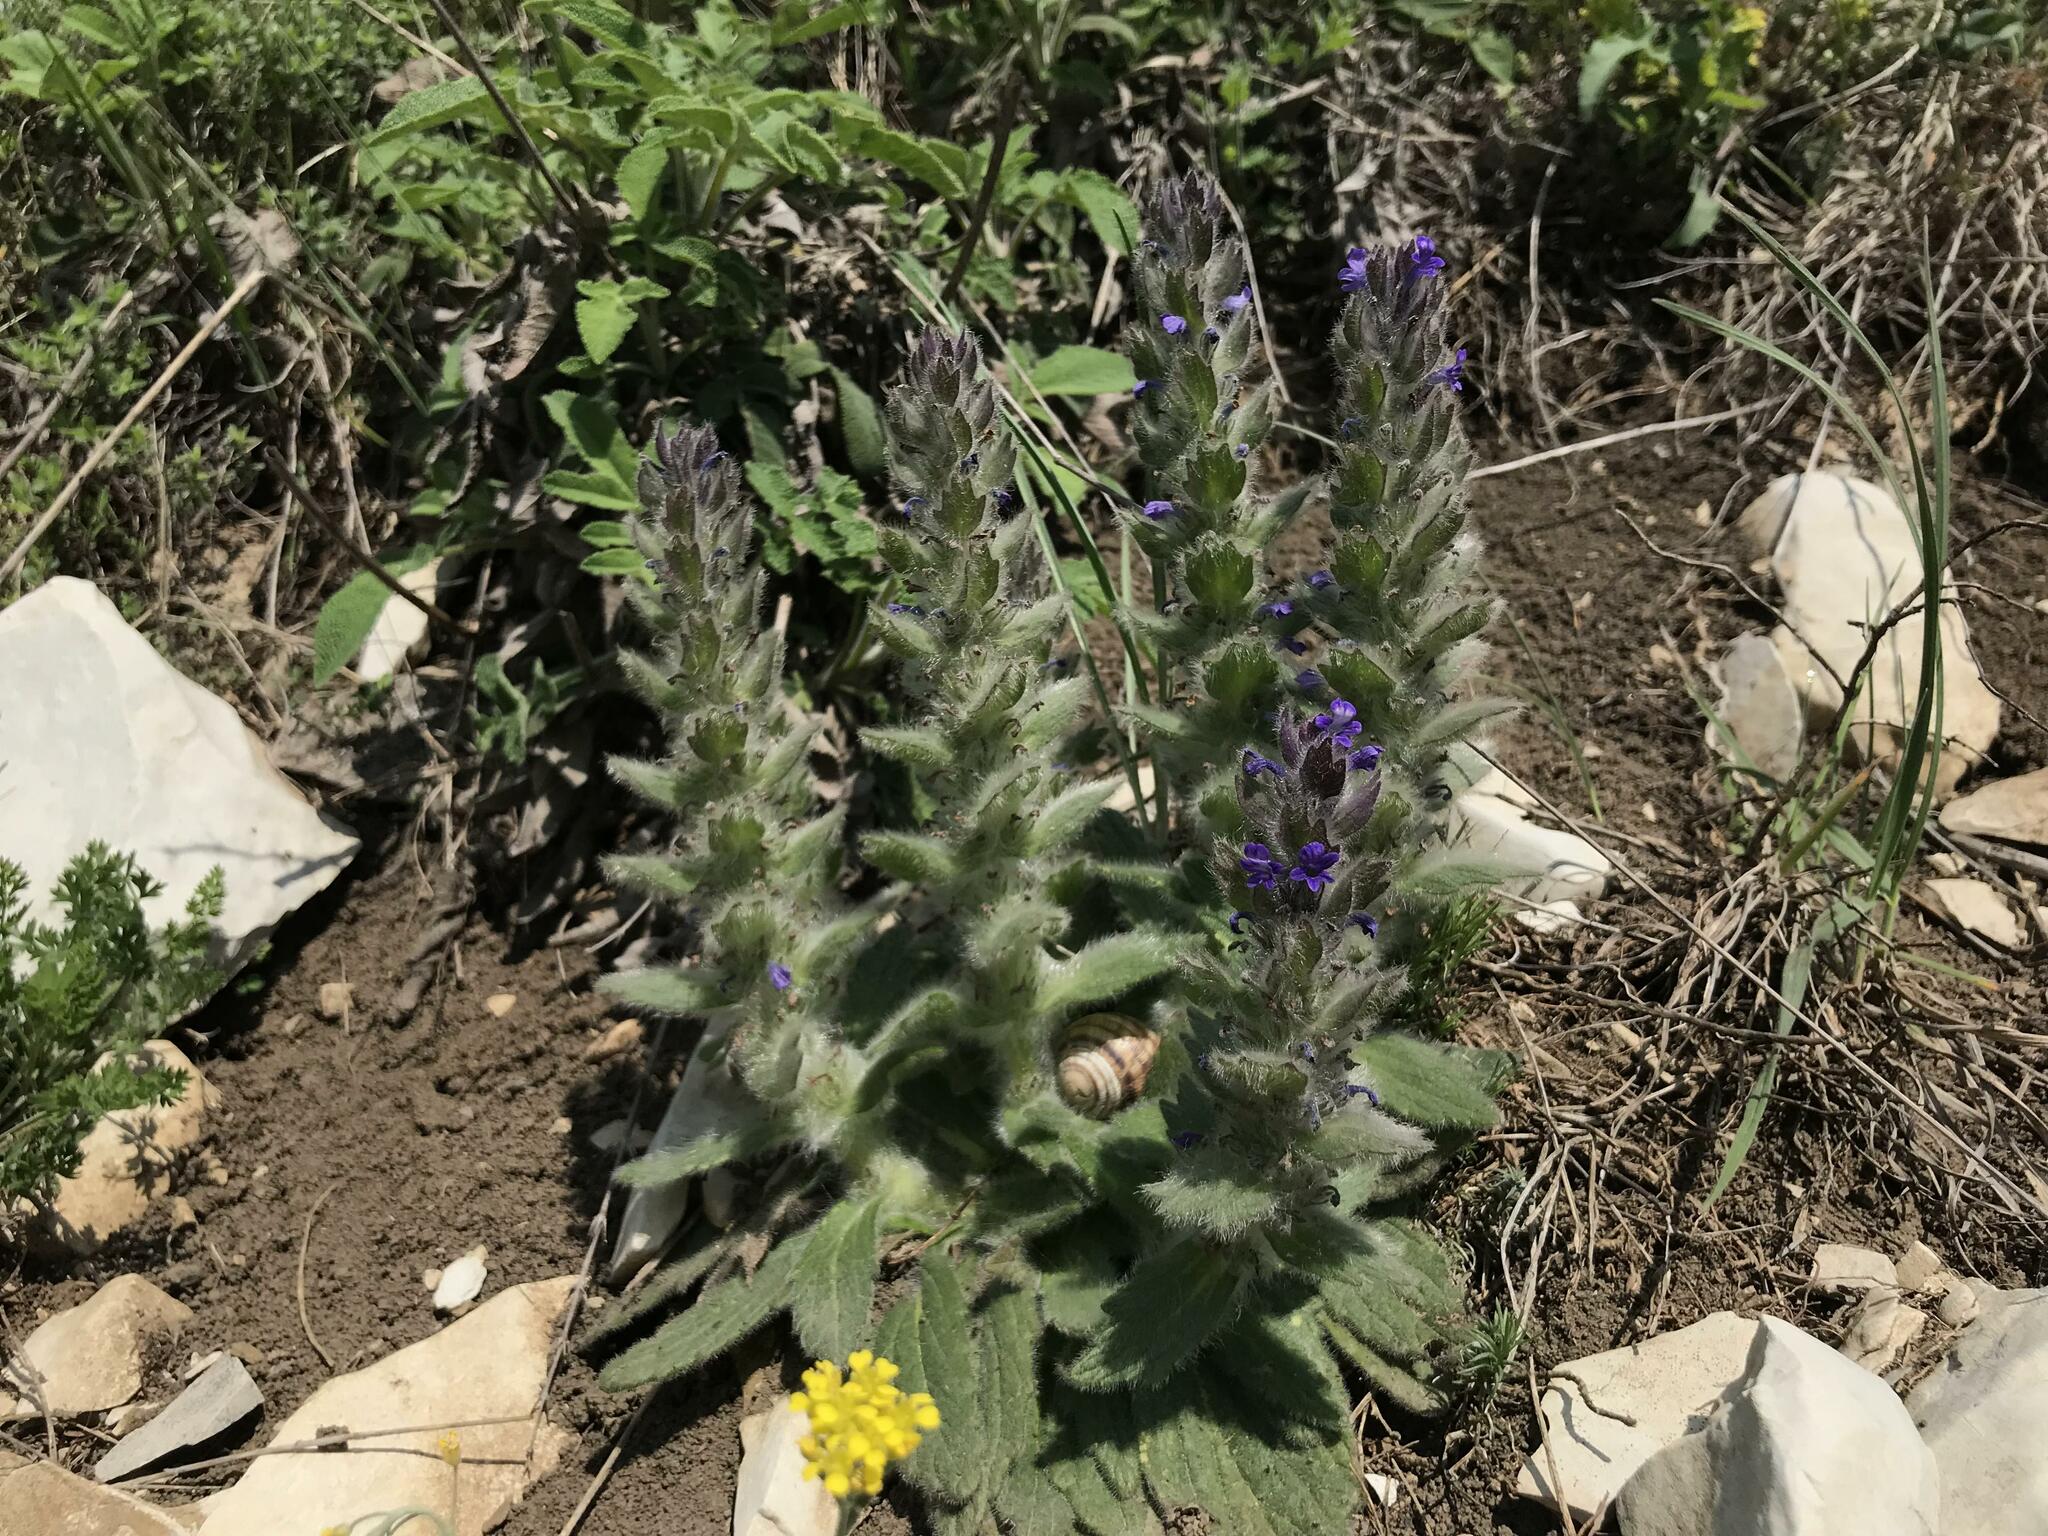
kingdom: Plantae
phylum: Tracheophyta
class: Magnoliopsida
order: Lamiales
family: Lamiaceae
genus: Ajuga
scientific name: Ajuga orientalis
